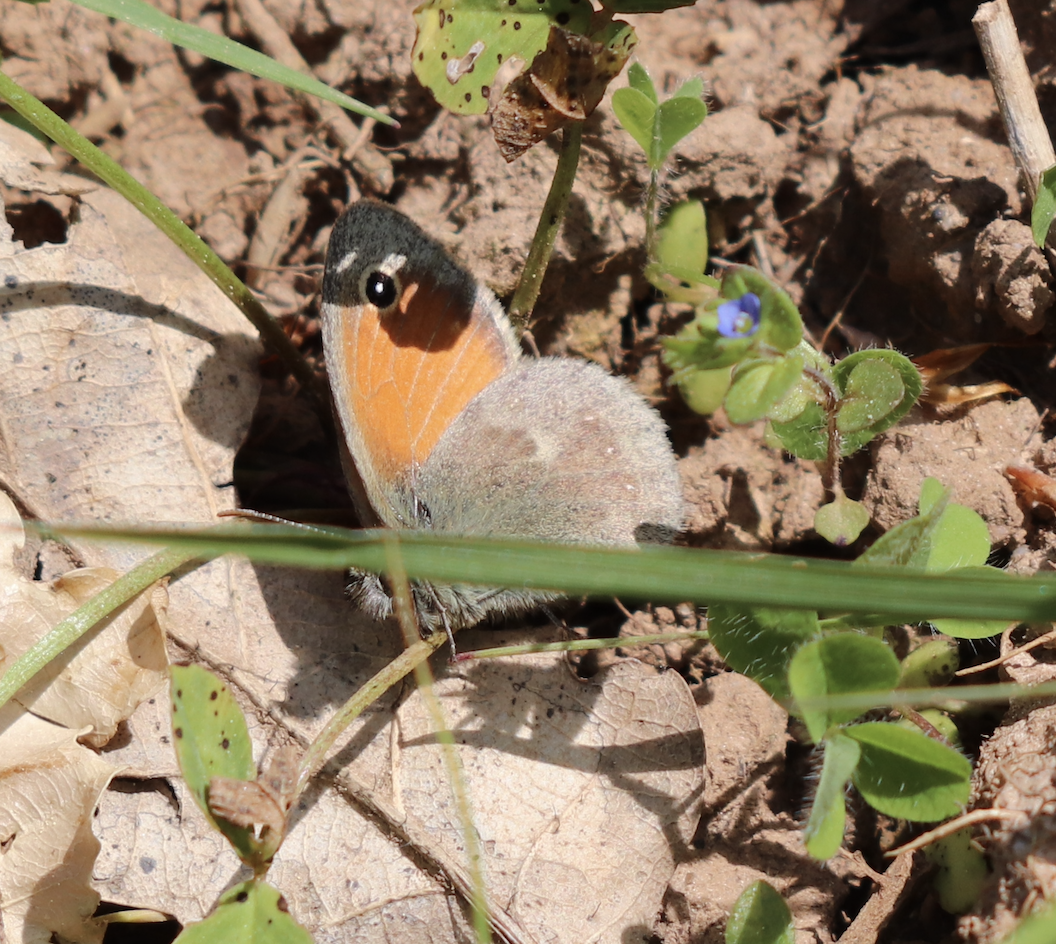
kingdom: Animalia
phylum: Arthropoda
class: Insecta
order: Lepidoptera
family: Nymphalidae
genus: Coenonympha
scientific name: Coenonympha pamphilus
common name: Small heath
